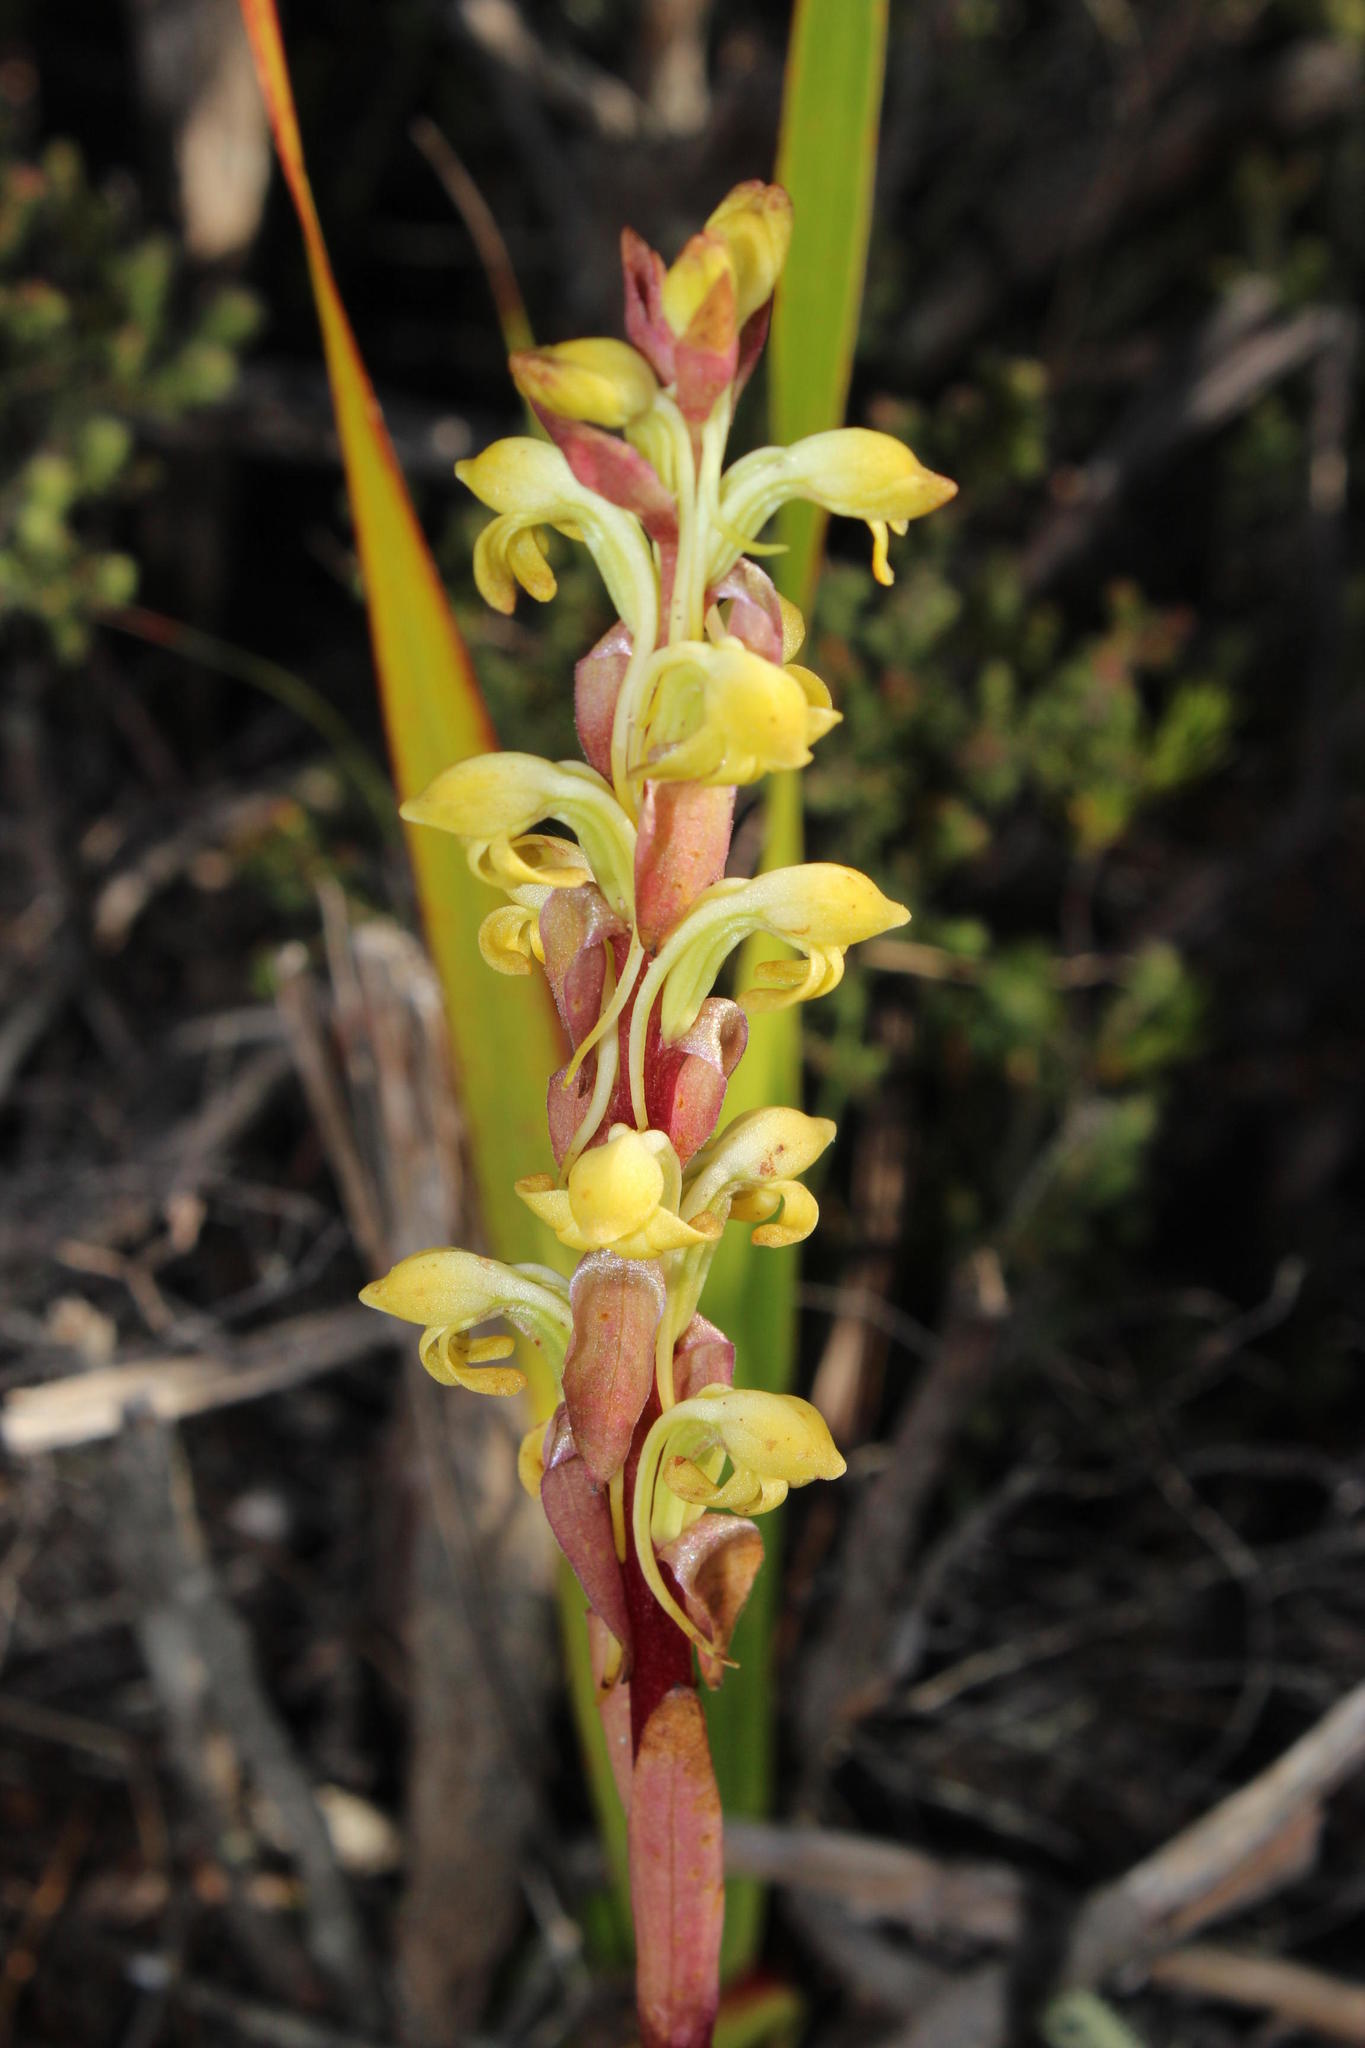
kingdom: Plantae
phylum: Tracheophyta
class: Liliopsida
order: Asparagales
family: Orchidaceae
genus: Satyrium
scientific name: Satyrium bicorne
